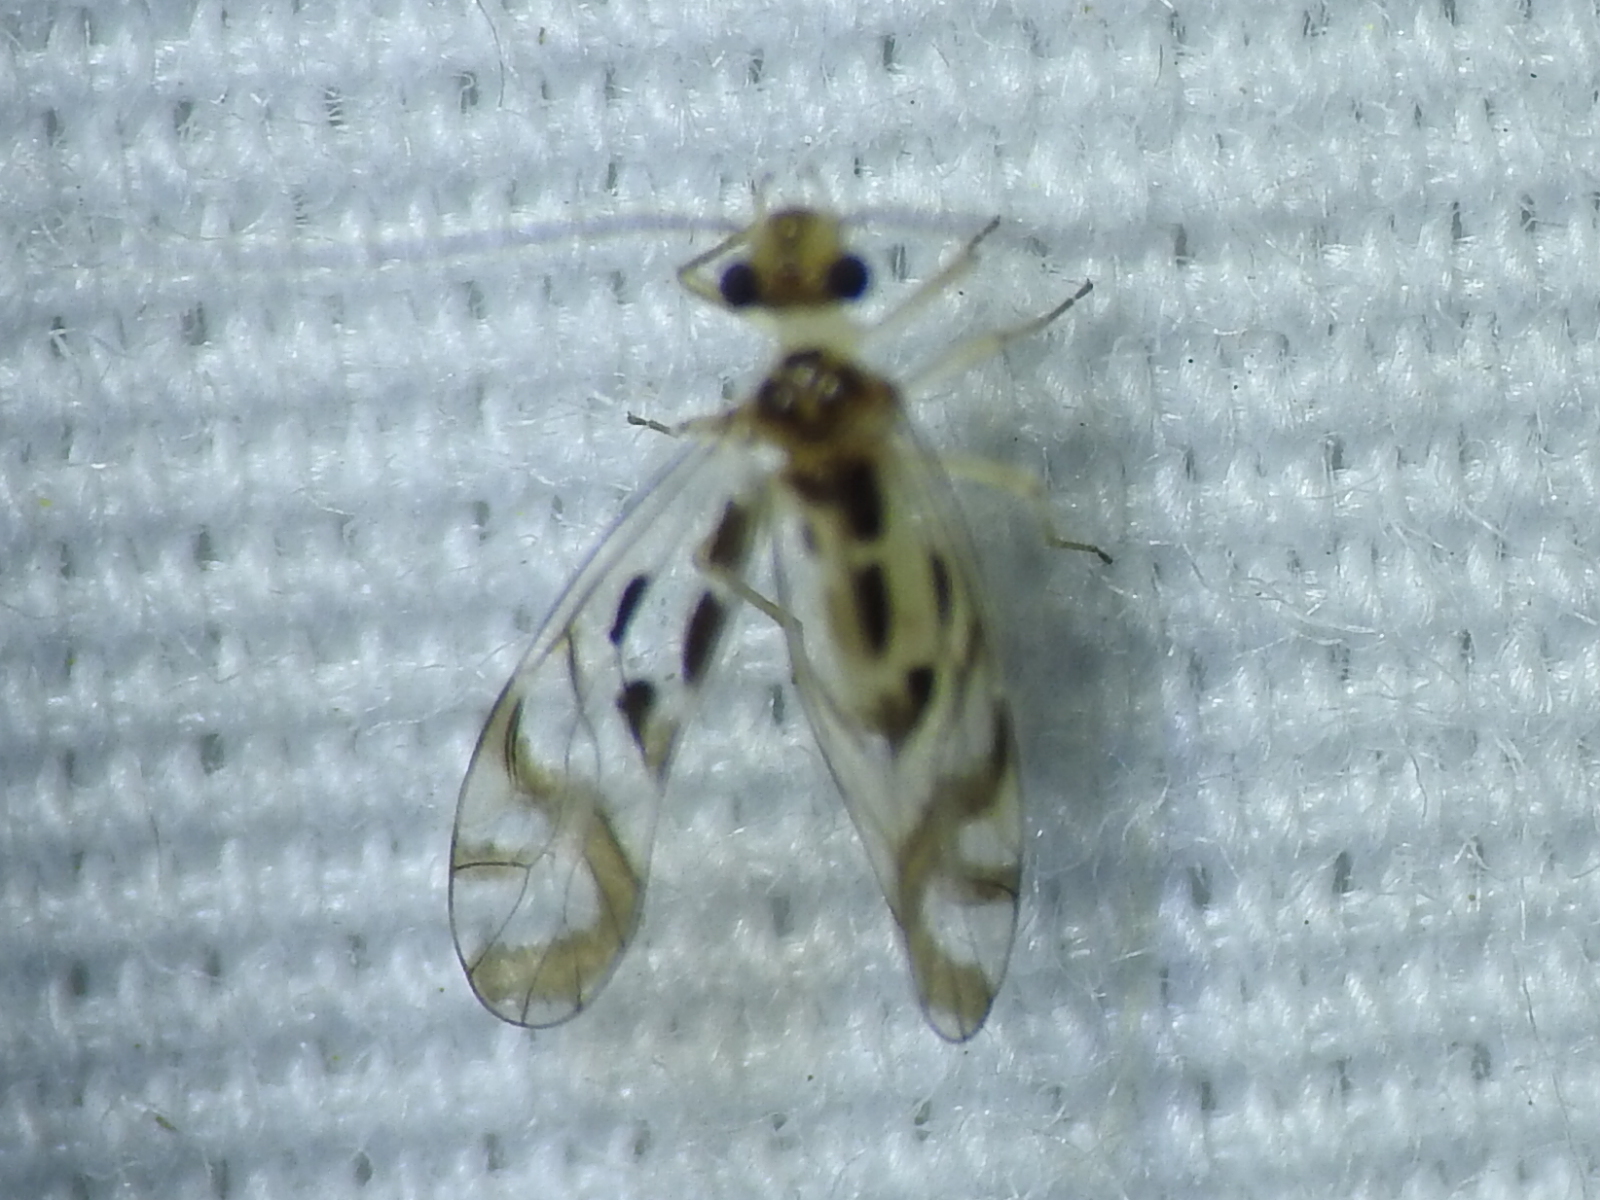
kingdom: Animalia
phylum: Arthropoda
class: Insecta
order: Psocodea
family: Stenopsocidae
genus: Graphopsocus
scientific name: Graphopsocus cruciatus
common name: Lizard bark louse
